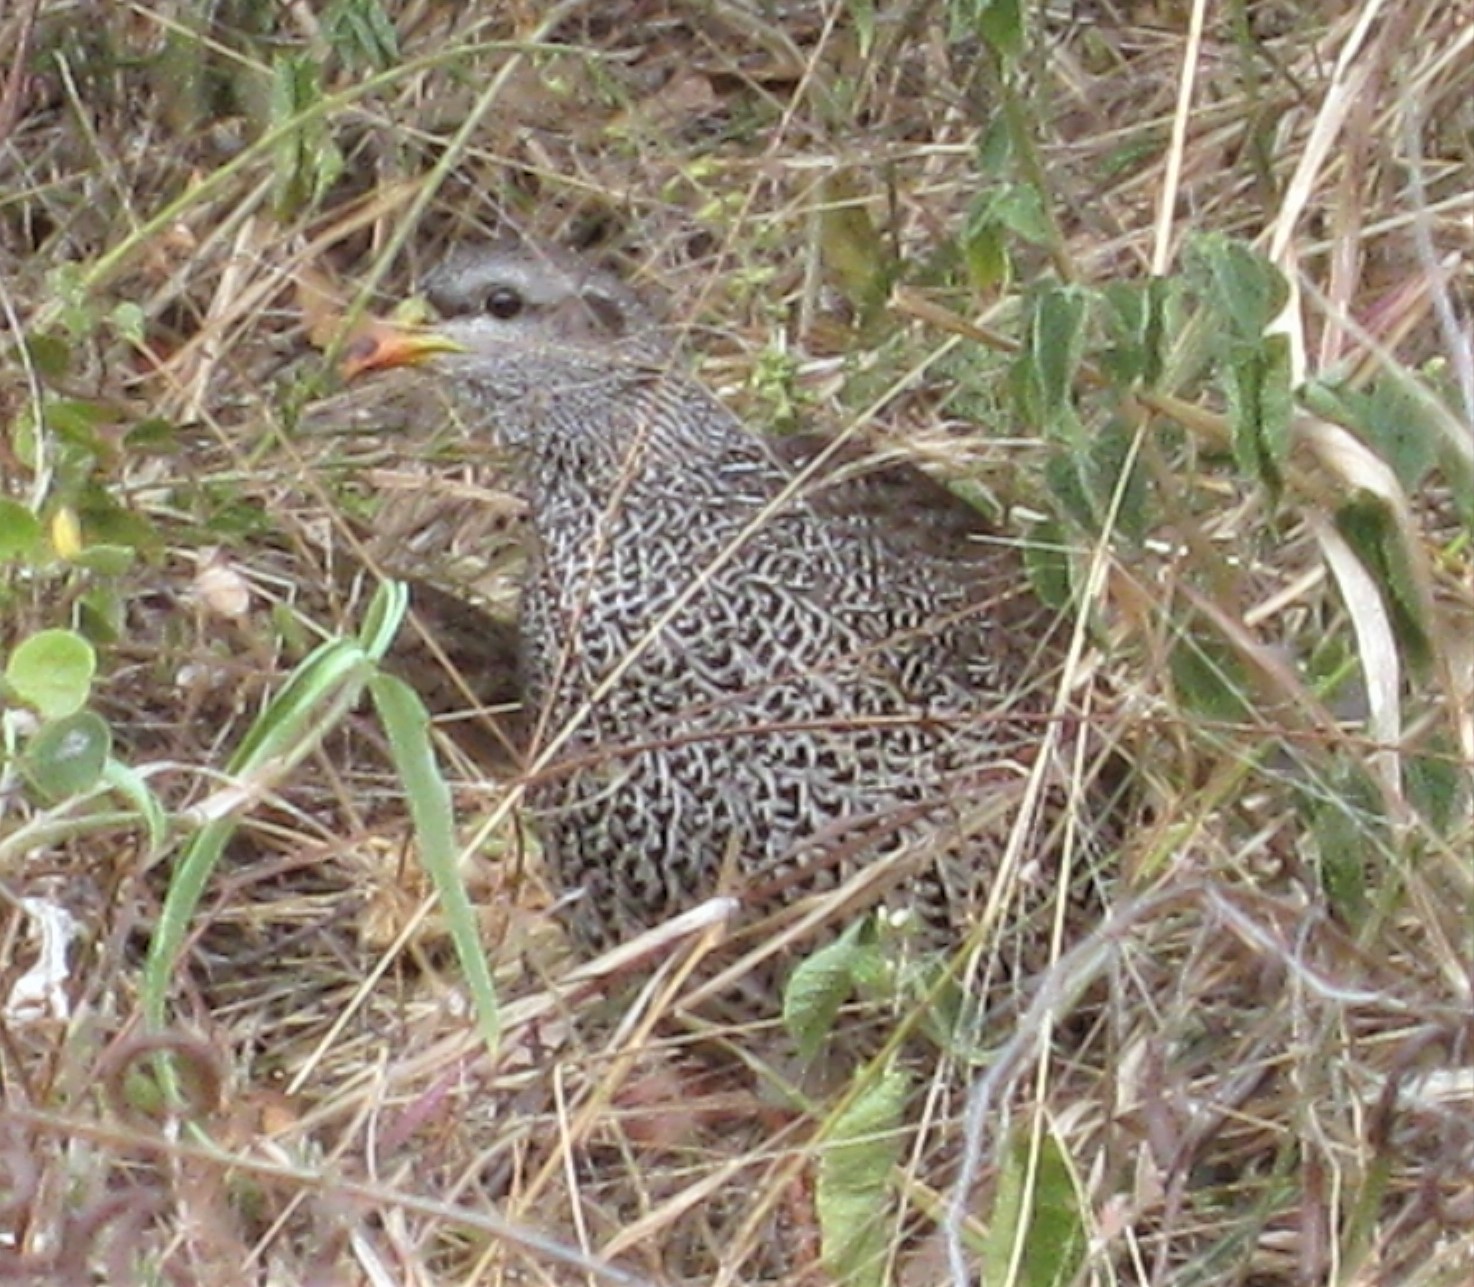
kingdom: Animalia
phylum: Chordata
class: Aves
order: Galliformes
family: Phasianidae
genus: Pternistis
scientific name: Pternistis natalensis
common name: Natal spurfowl
